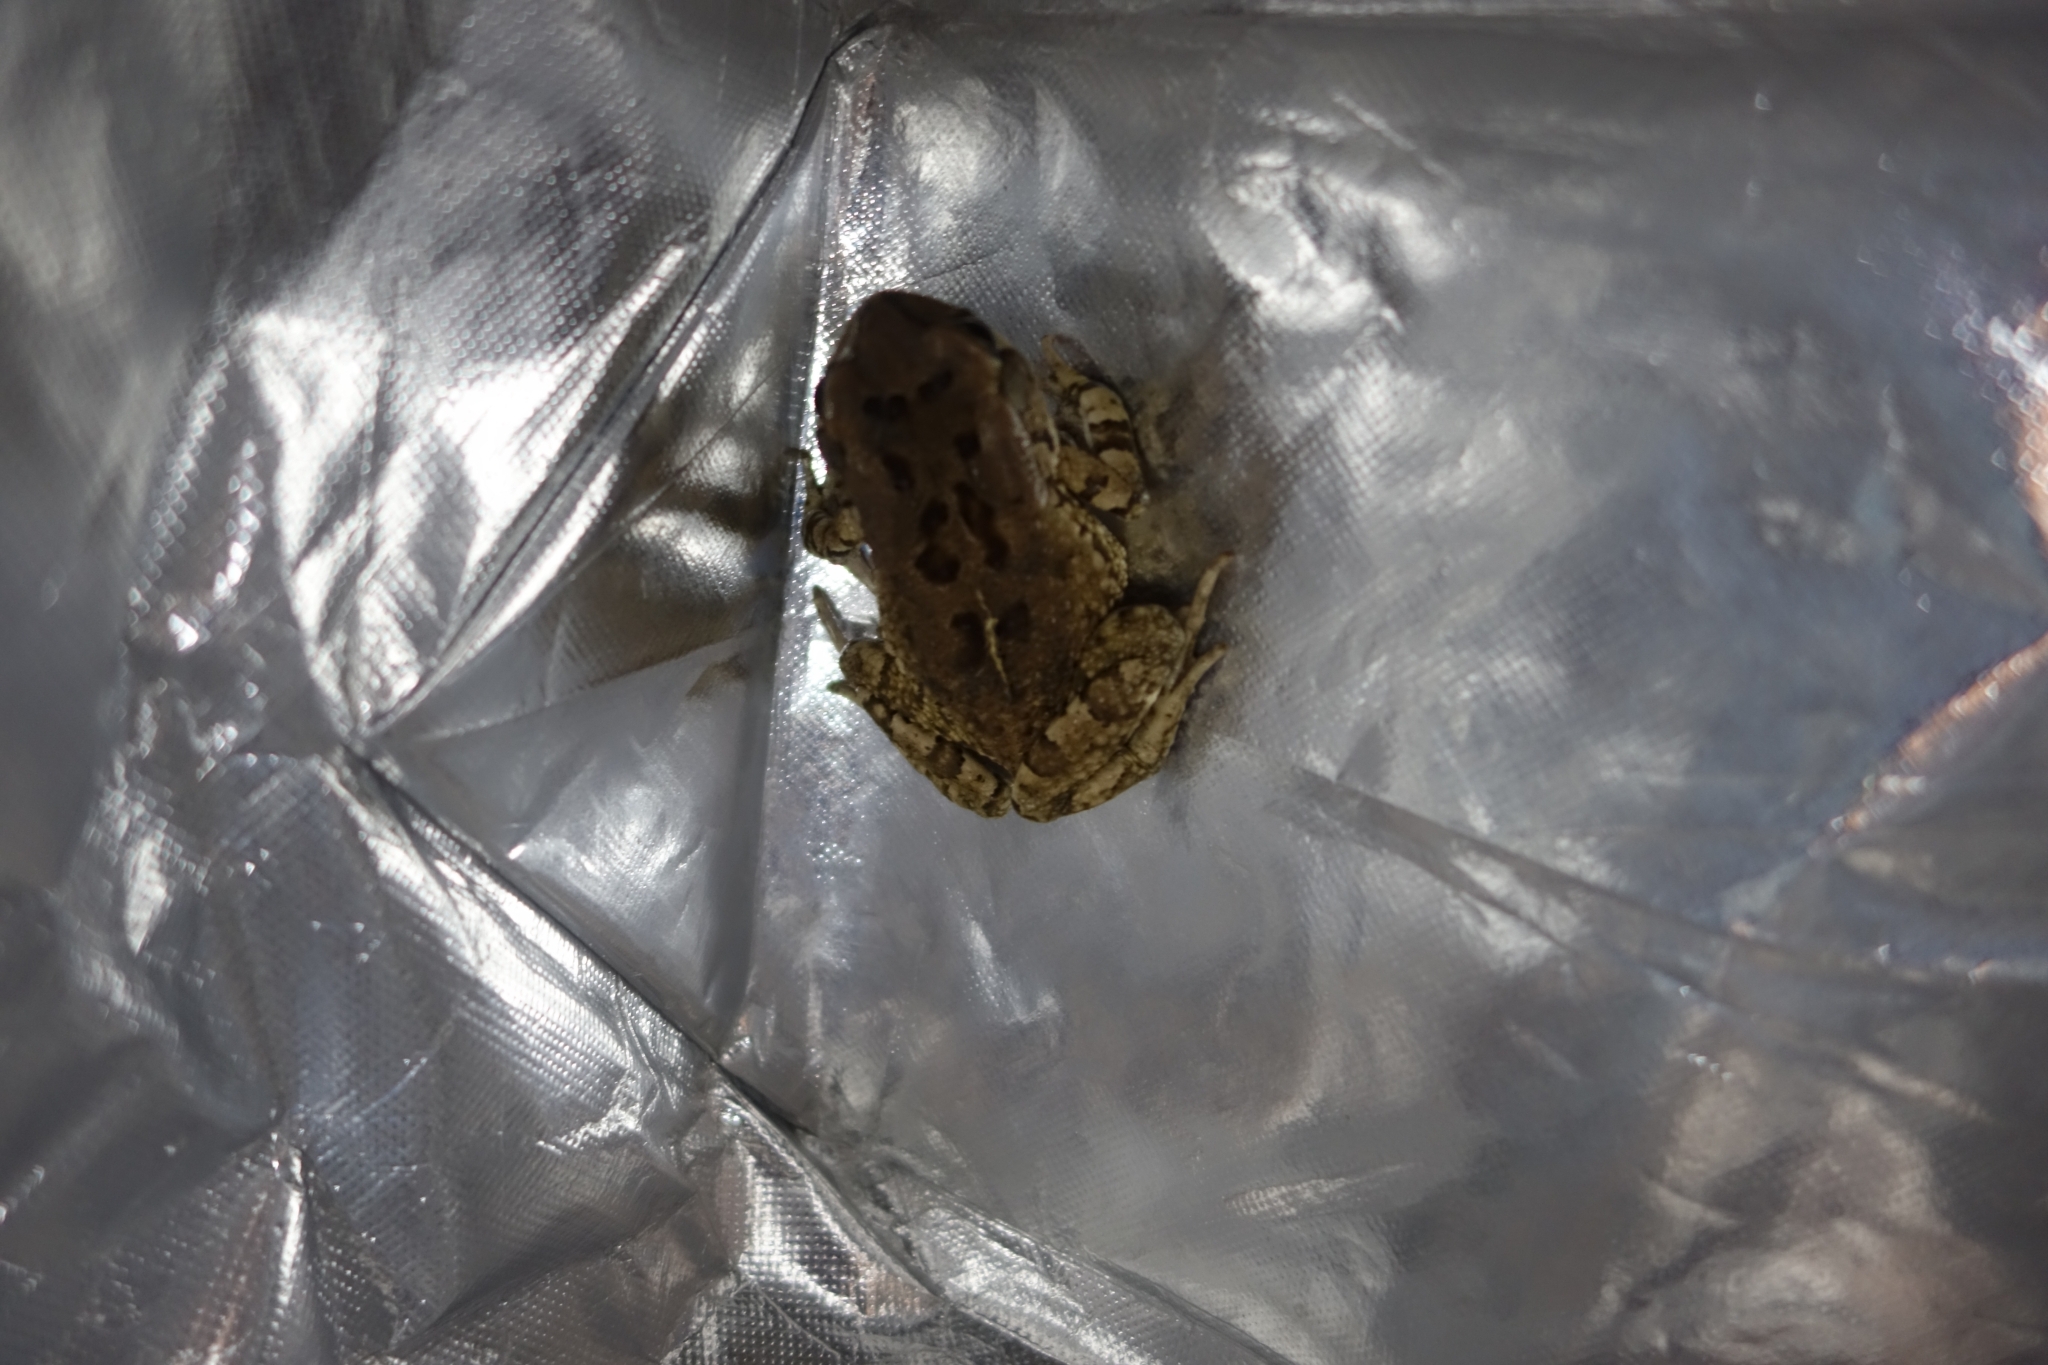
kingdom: Animalia
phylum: Chordata
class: Amphibia
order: Anura
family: Bufonidae
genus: Sclerophrys
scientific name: Sclerophrys capensis
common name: Ranger’s toad
